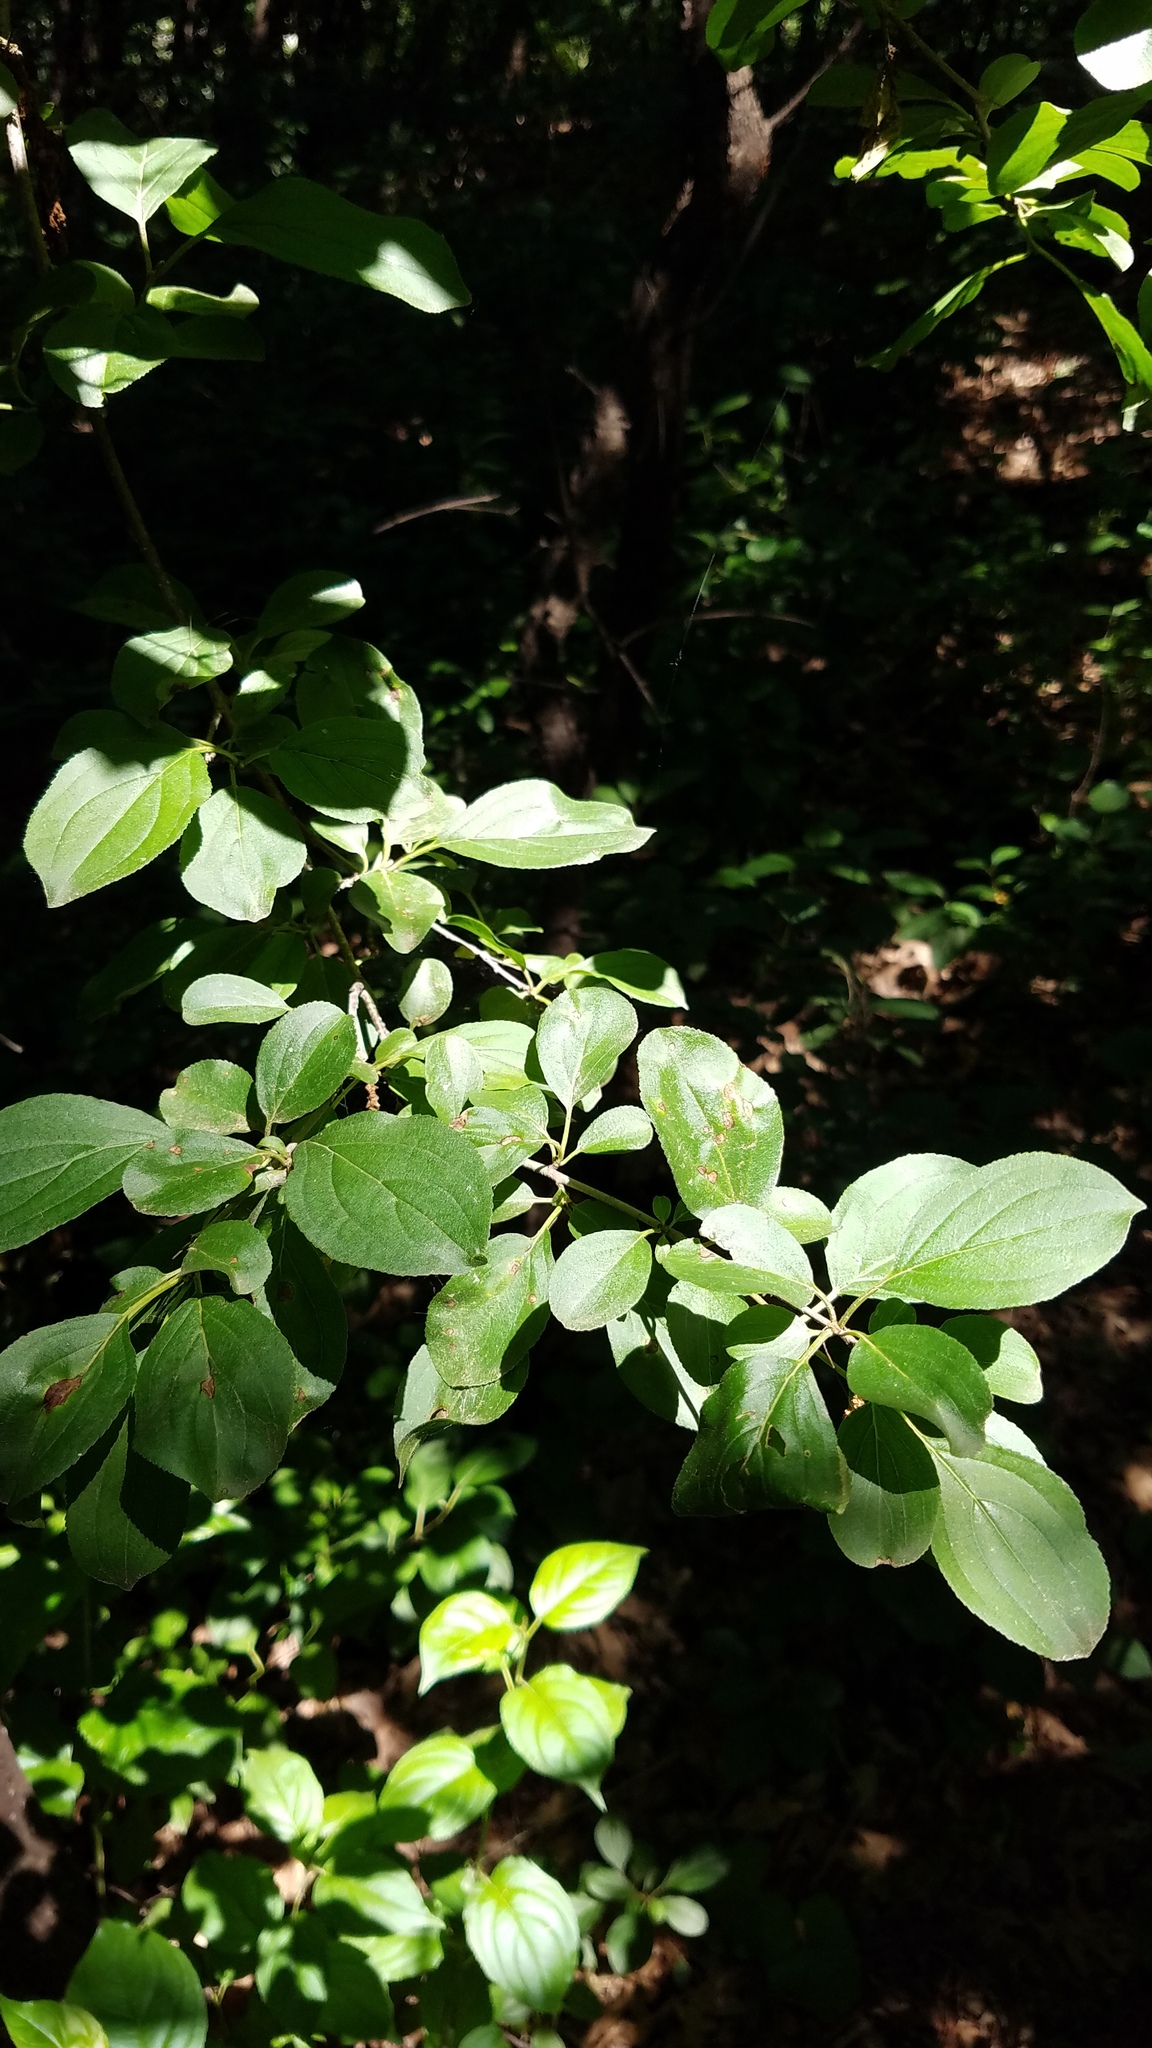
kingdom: Plantae
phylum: Tracheophyta
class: Magnoliopsida
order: Rosales
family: Rhamnaceae
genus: Rhamnus
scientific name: Rhamnus cathartica
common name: Common buckthorn
